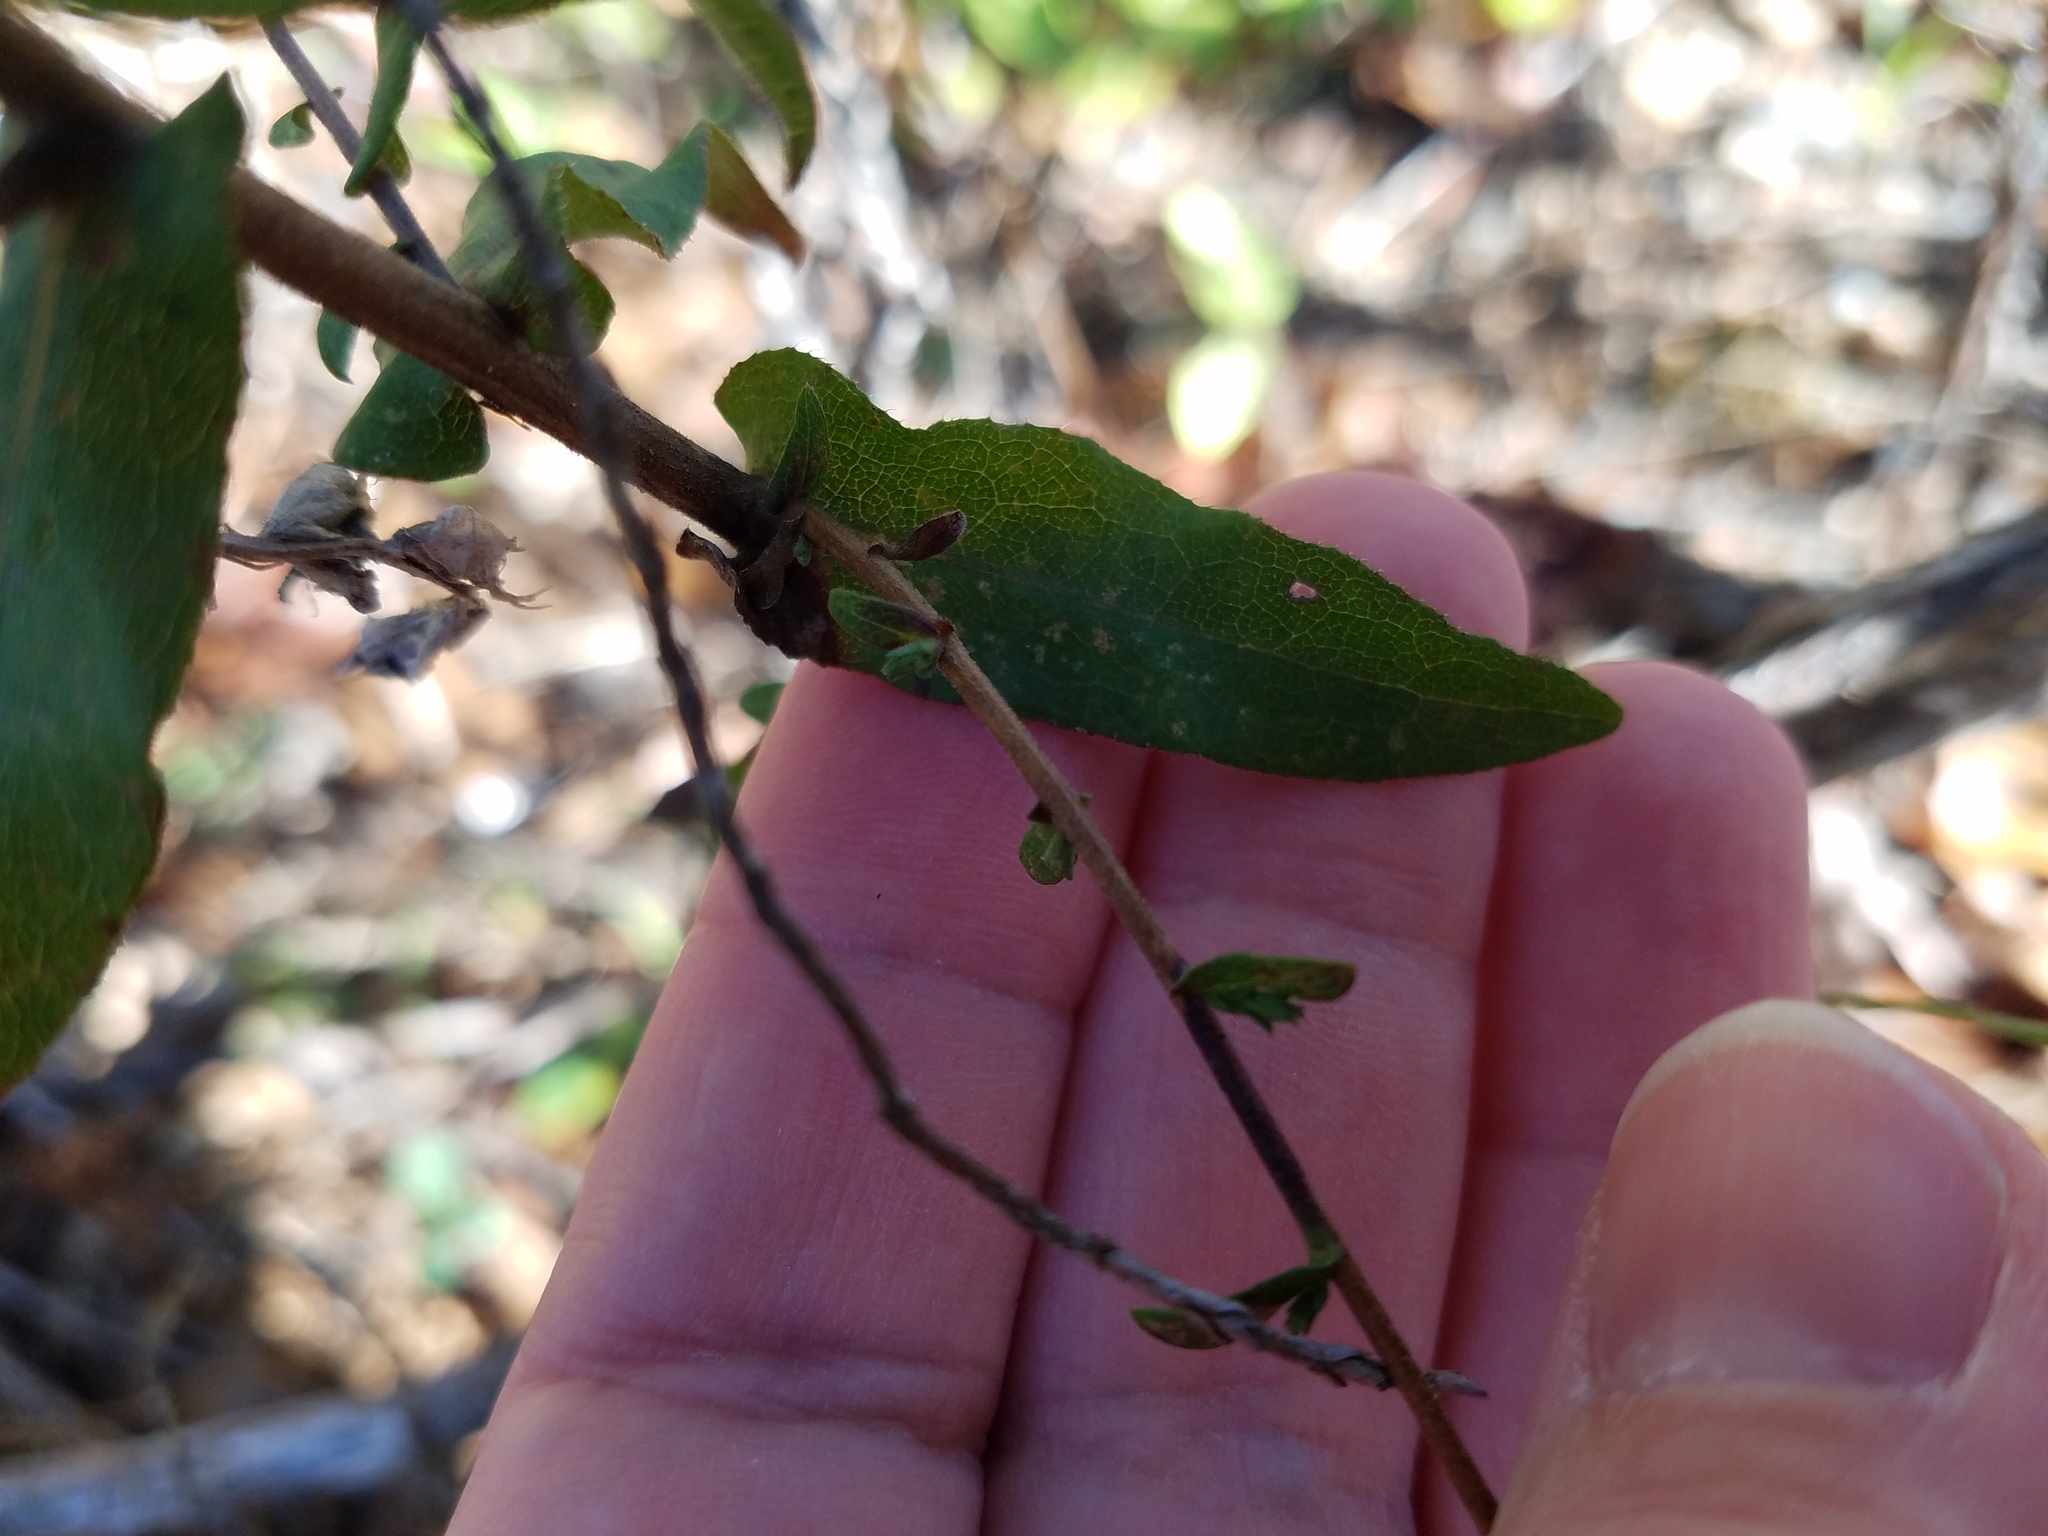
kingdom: Plantae
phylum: Tracheophyta
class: Magnoliopsida
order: Asterales
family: Asteraceae
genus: Symphyotrichum
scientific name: Symphyotrichum patens
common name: Late purple aster
